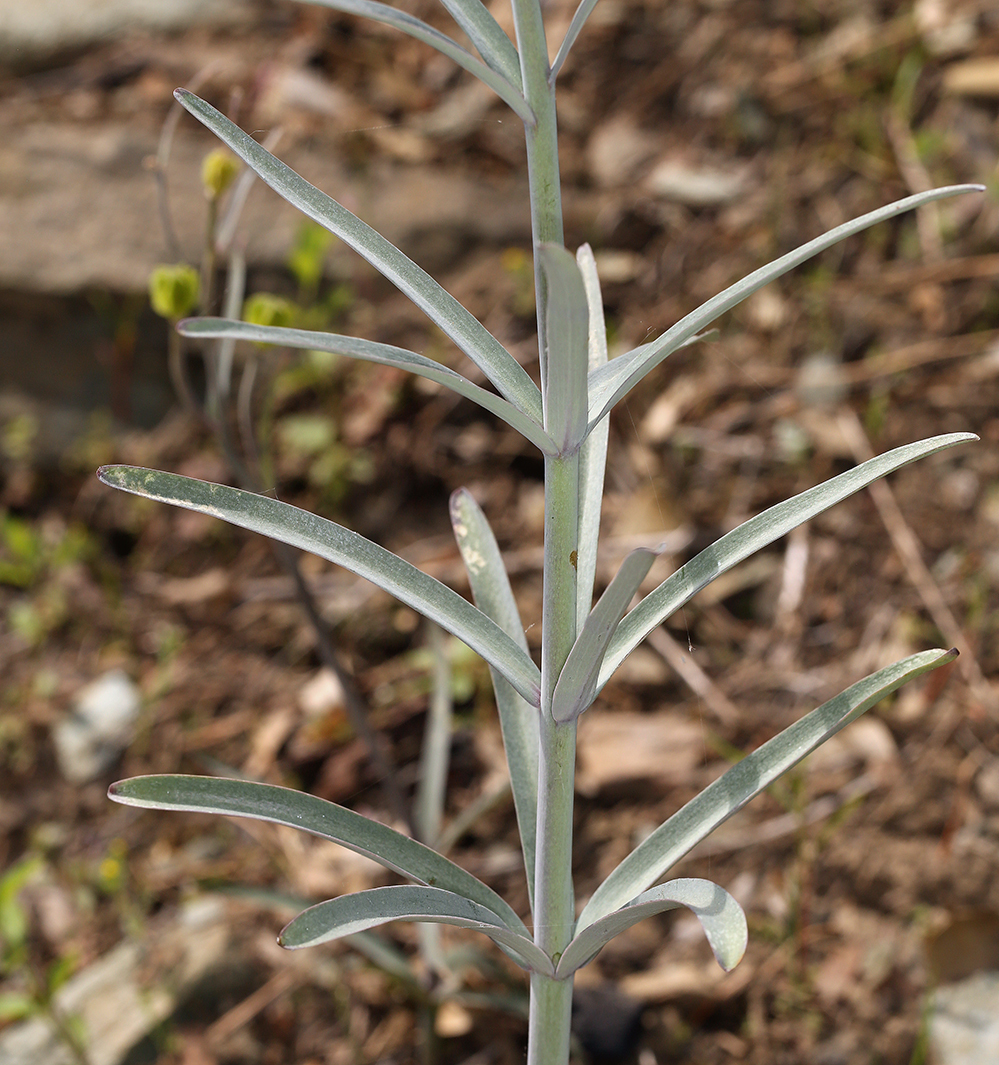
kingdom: Plantae
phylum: Tracheophyta
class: Liliopsida
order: Liliales
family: Liliaceae
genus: Fritillaria
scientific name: Fritillaria recurva
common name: Scarlet fritillary
